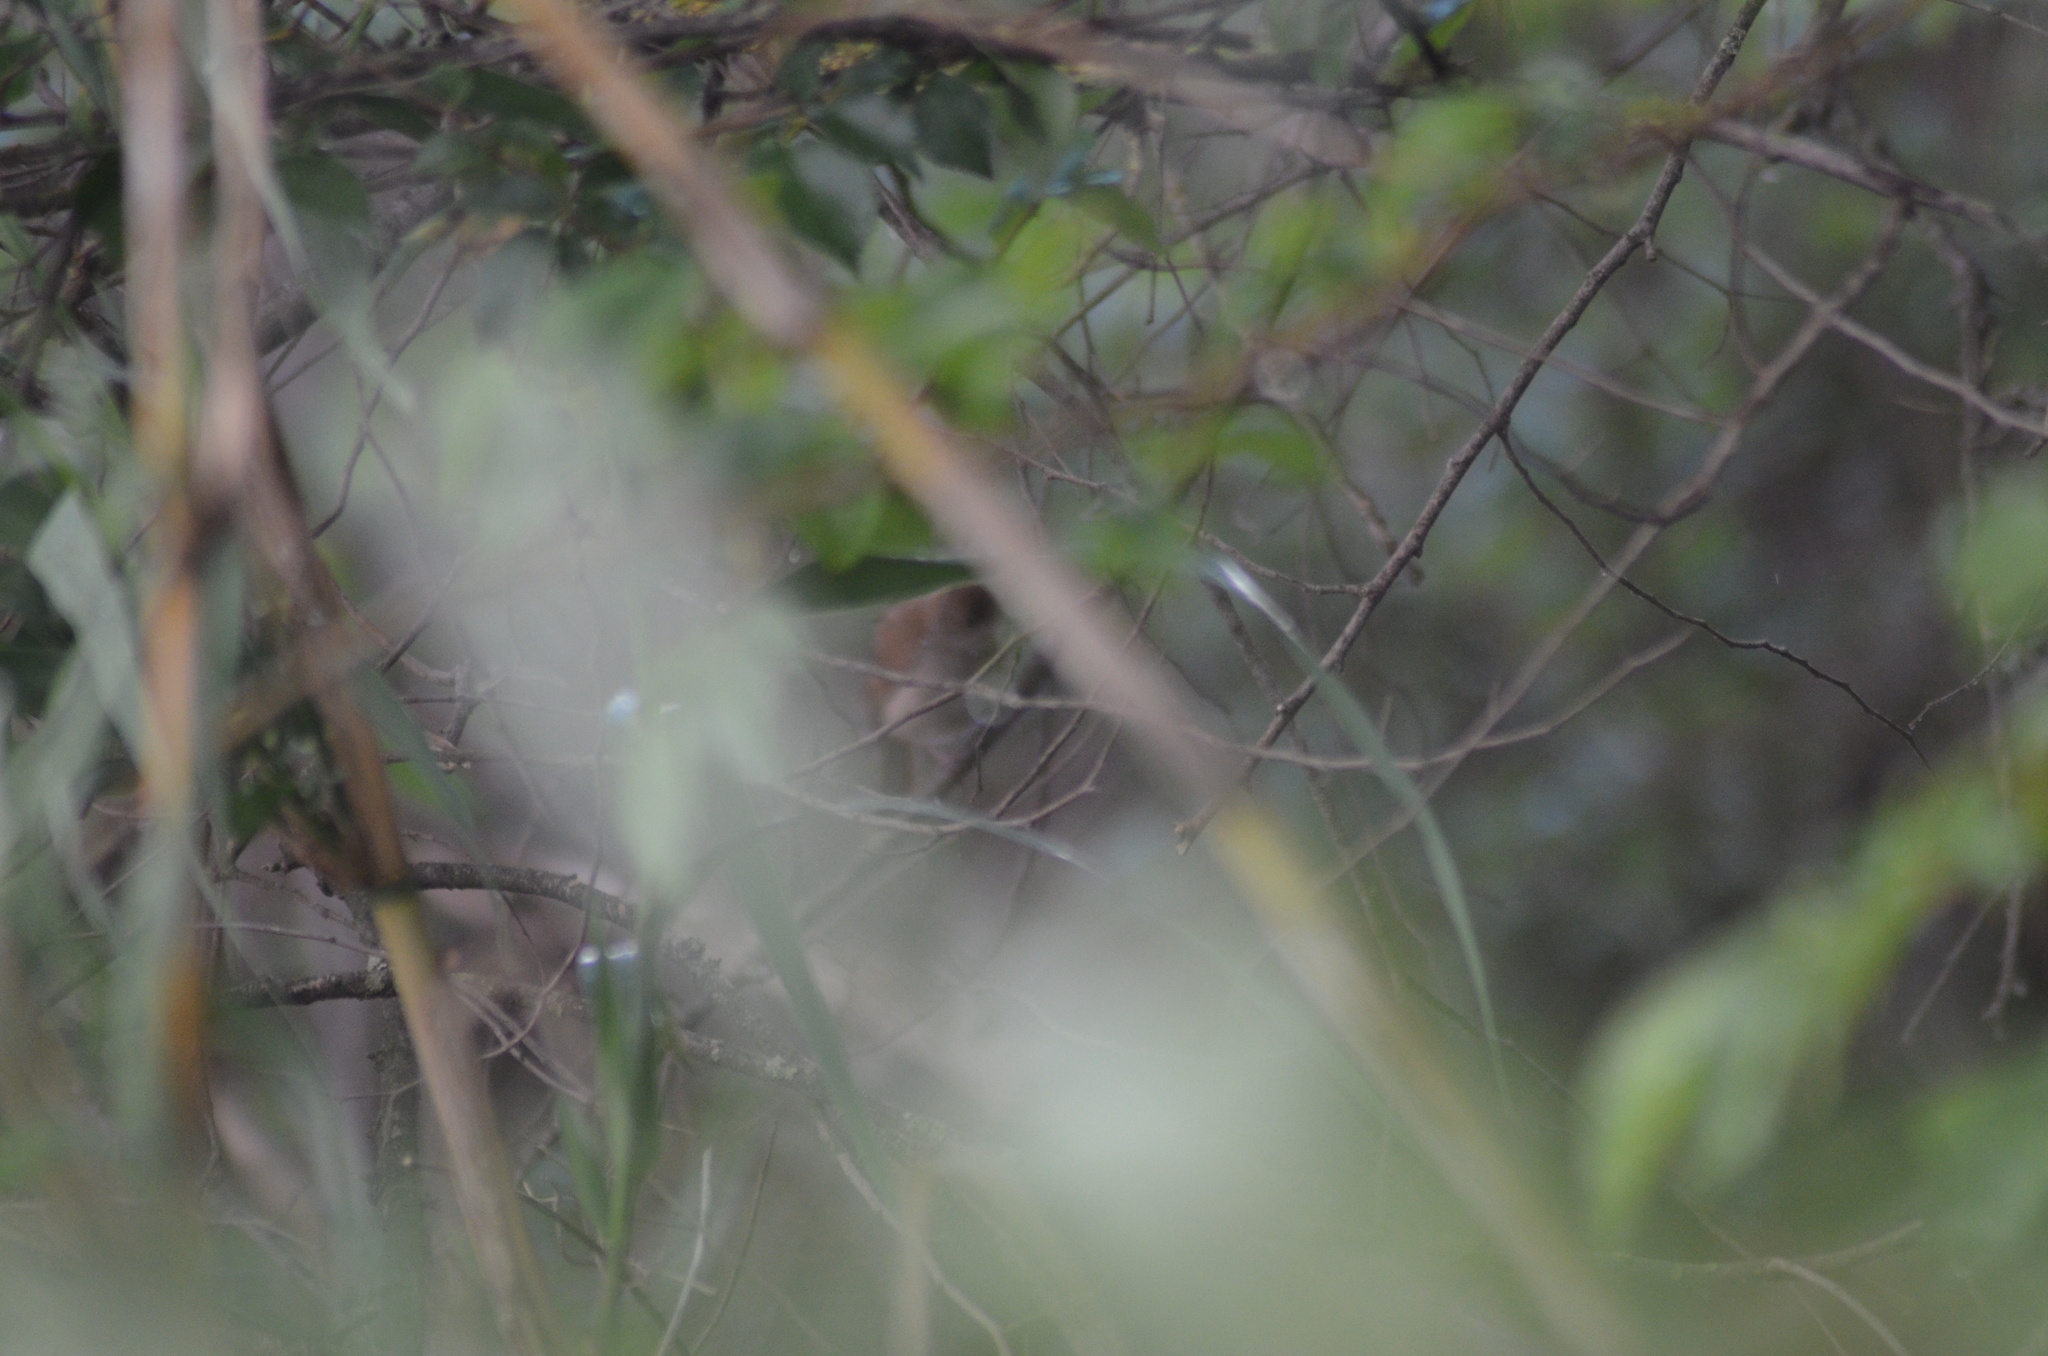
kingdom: Animalia
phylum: Chordata
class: Aves
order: Passeriformes
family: Muscicapidae
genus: Luscinia
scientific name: Luscinia megarhynchos
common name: Common nightingale
